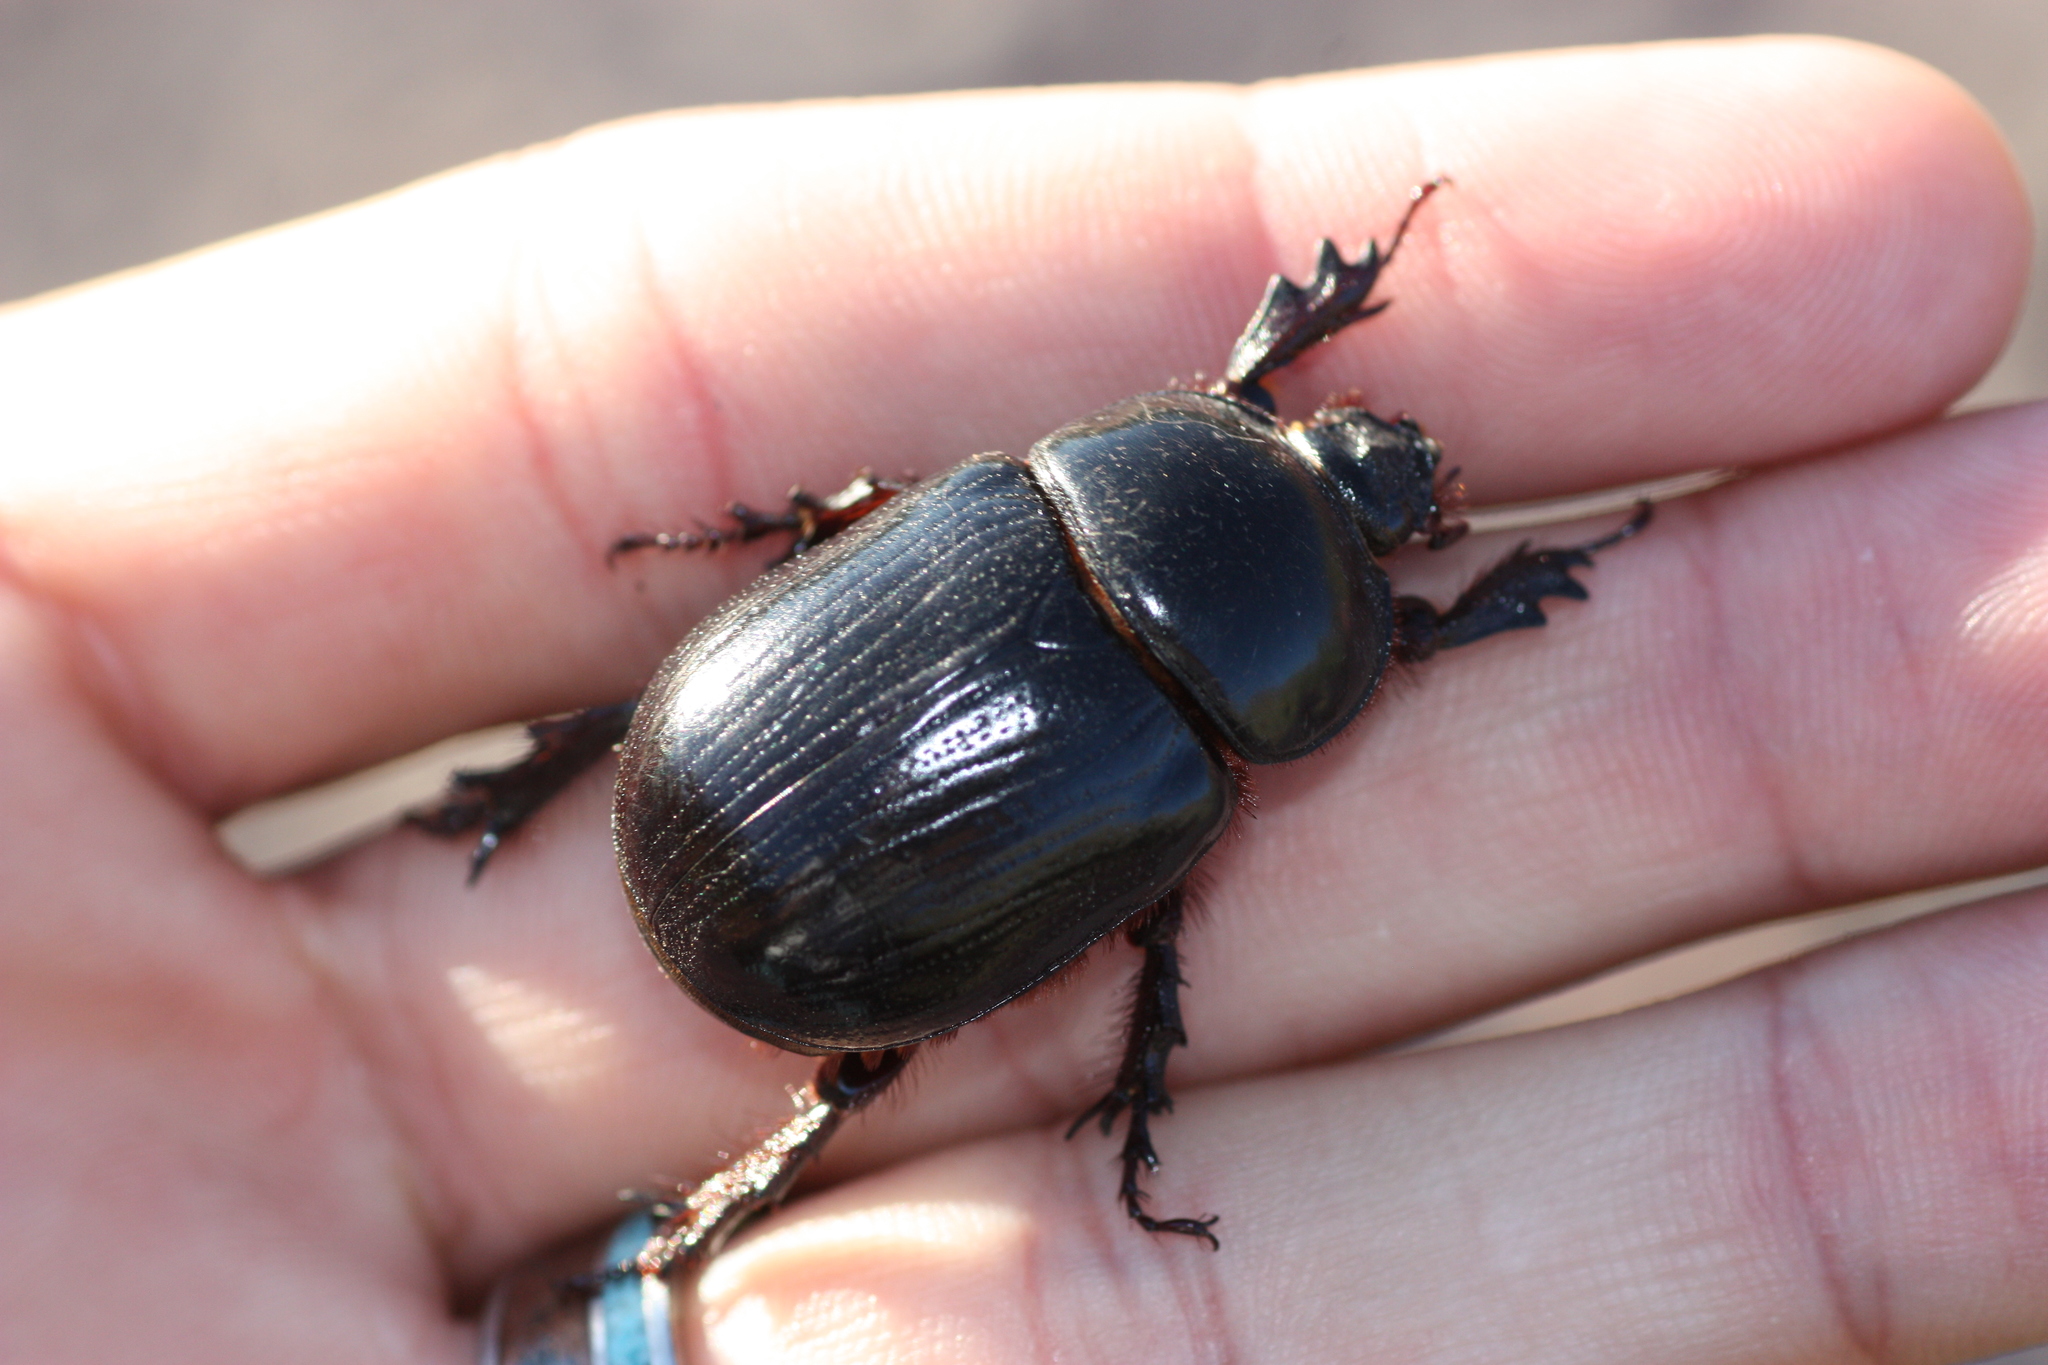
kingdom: Animalia
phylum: Arthropoda
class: Insecta
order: Coleoptera
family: Scarabaeidae
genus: Xyloryctes
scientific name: Xyloryctes thestalus
